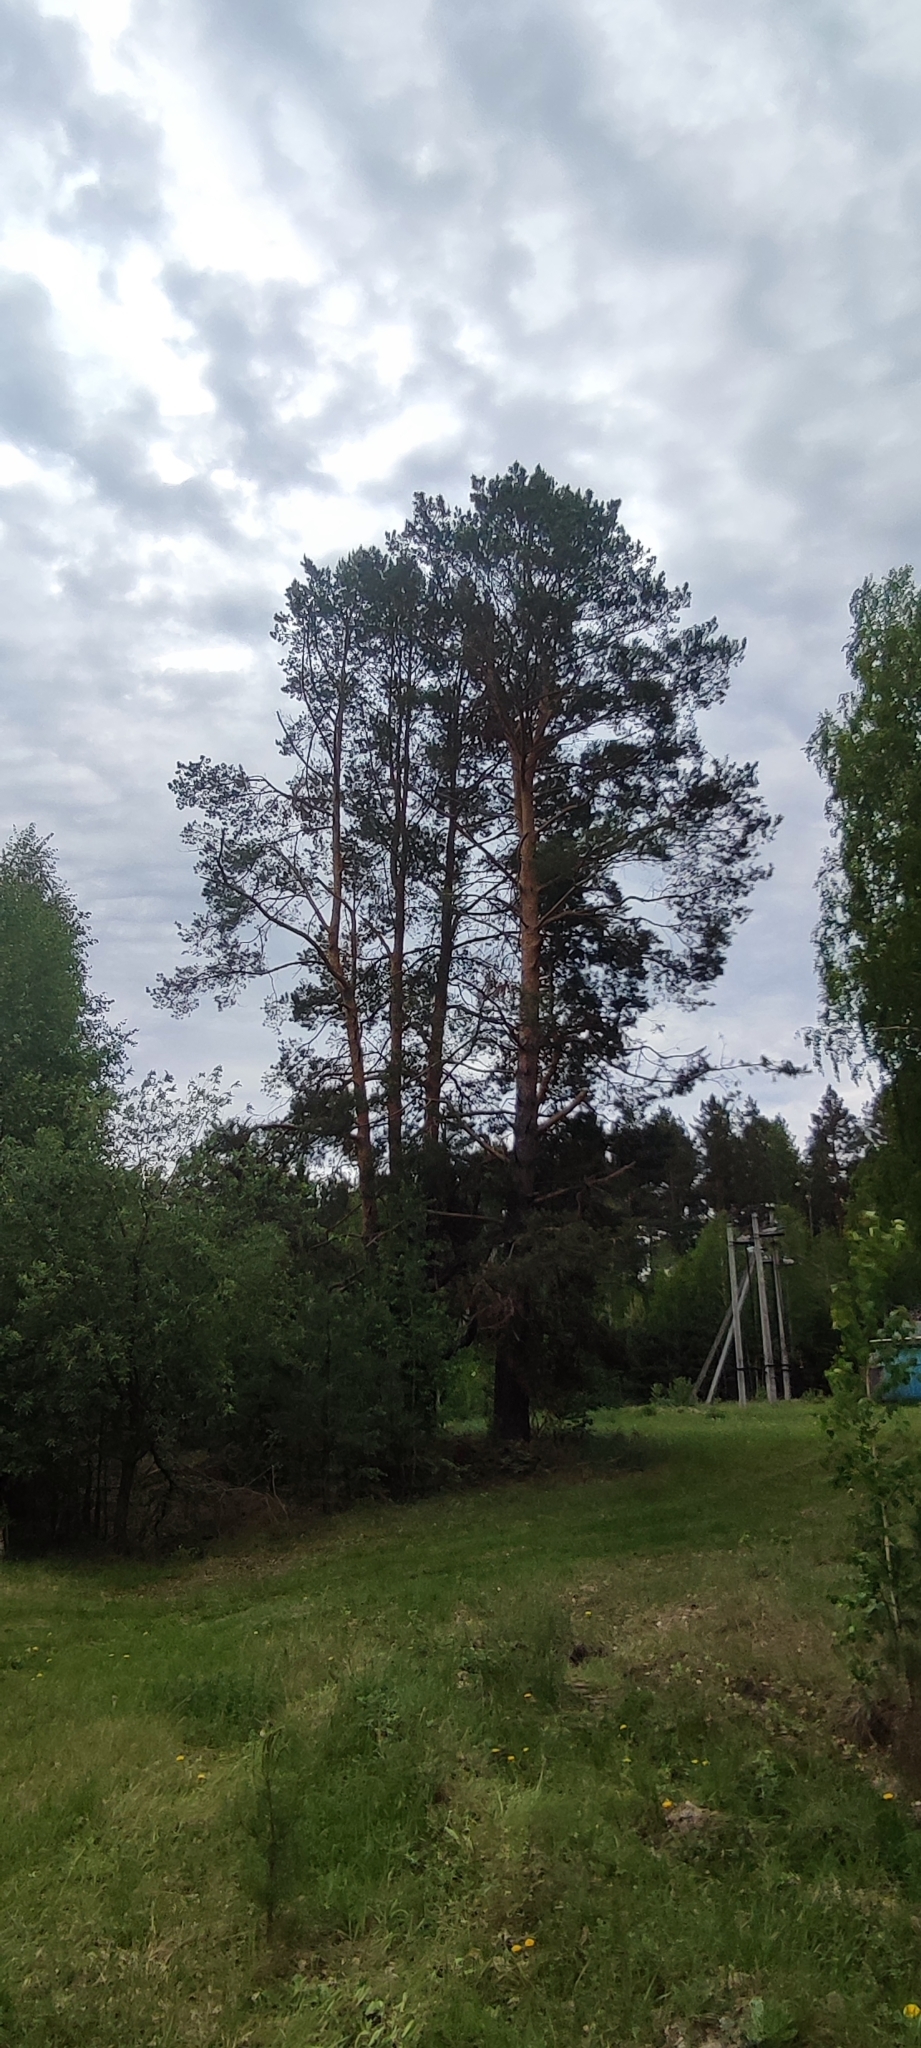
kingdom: Plantae
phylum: Tracheophyta
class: Pinopsida
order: Pinales
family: Pinaceae
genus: Pinus
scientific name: Pinus sylvestris
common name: Scots pine
